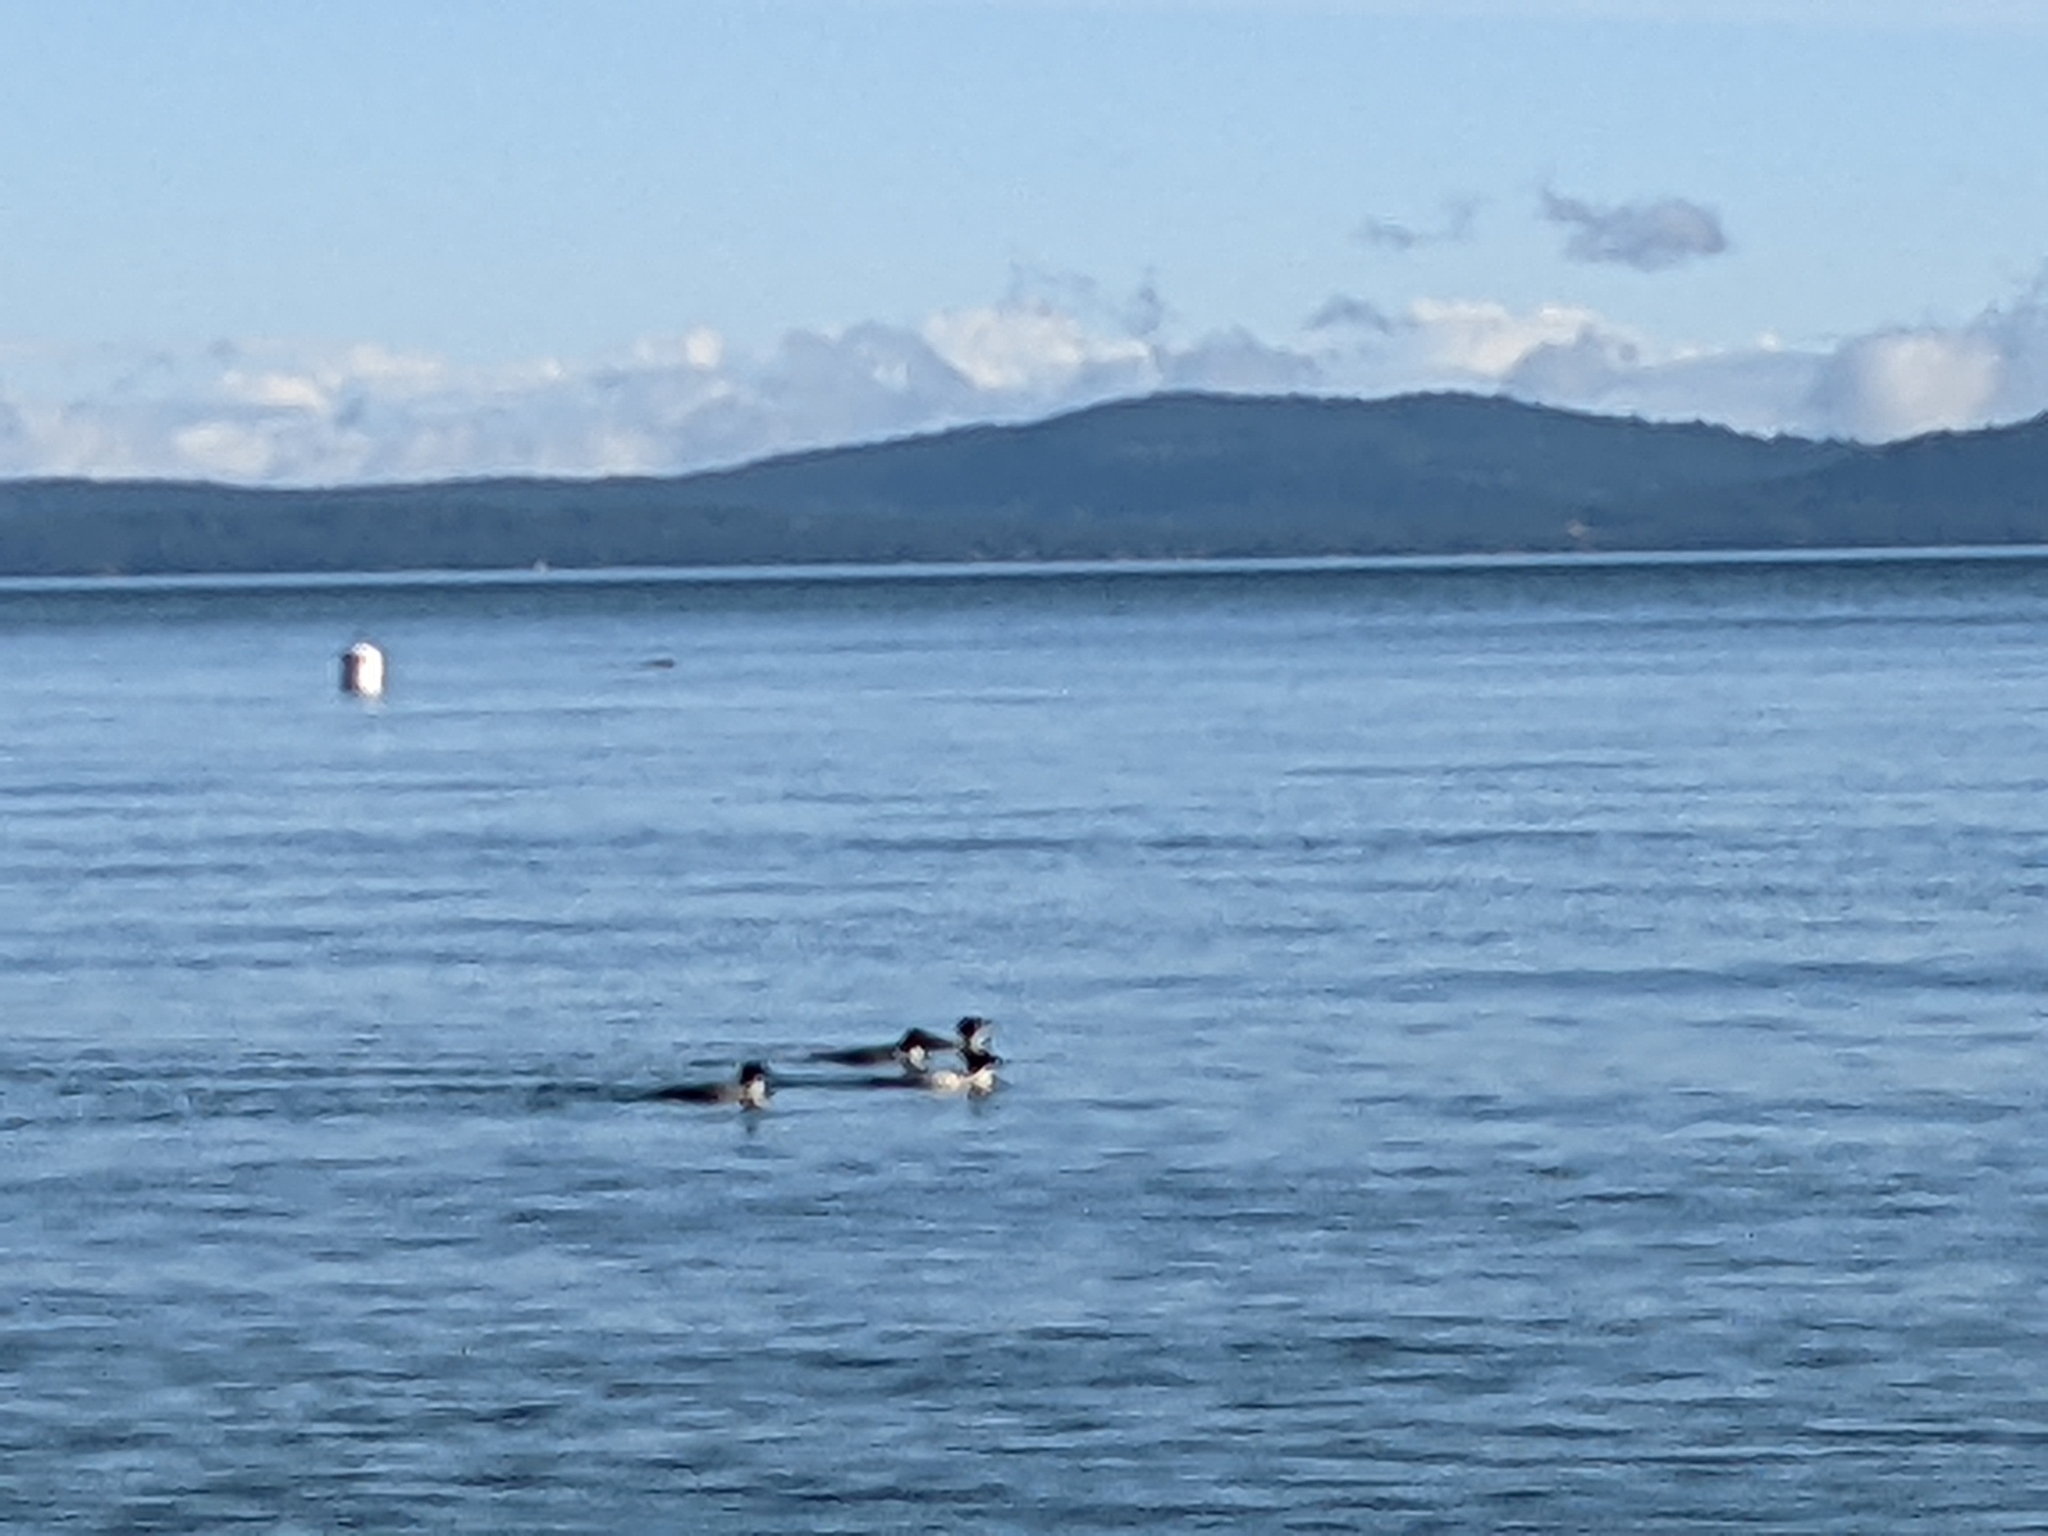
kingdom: Animalia
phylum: Chordata
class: Aves
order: Anseriformes
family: Anatidae
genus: Mergus
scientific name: Mergus merganser
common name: Common merganser
